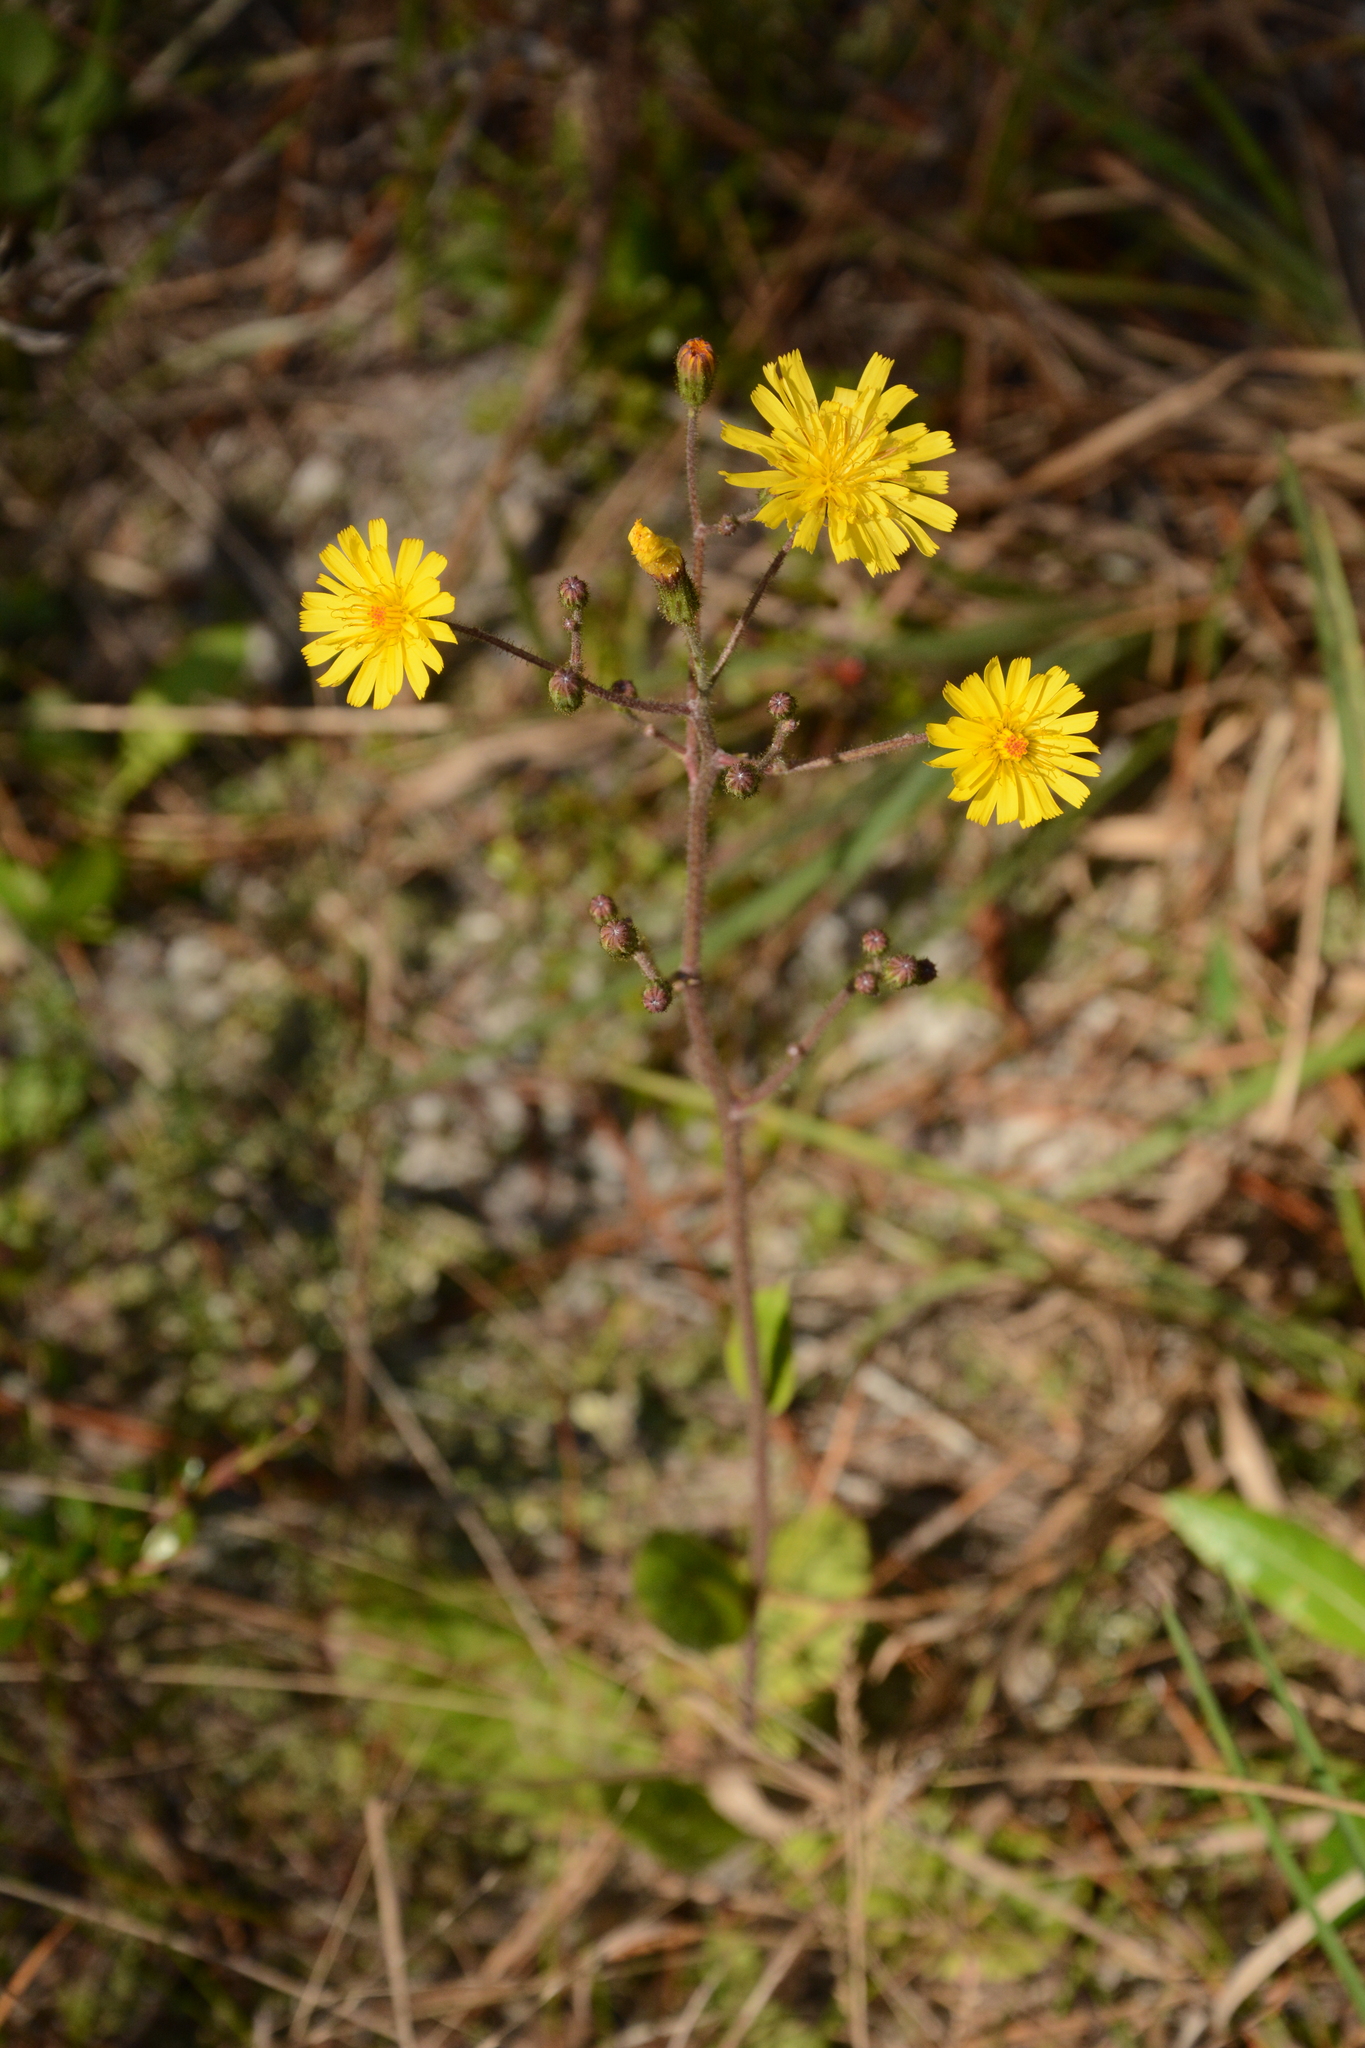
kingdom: Plantae
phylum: Tracheophyta
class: Magnoliopsida
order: Asterales
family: Asteraceae
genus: Hieracium
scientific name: Hieracium megacephalum
